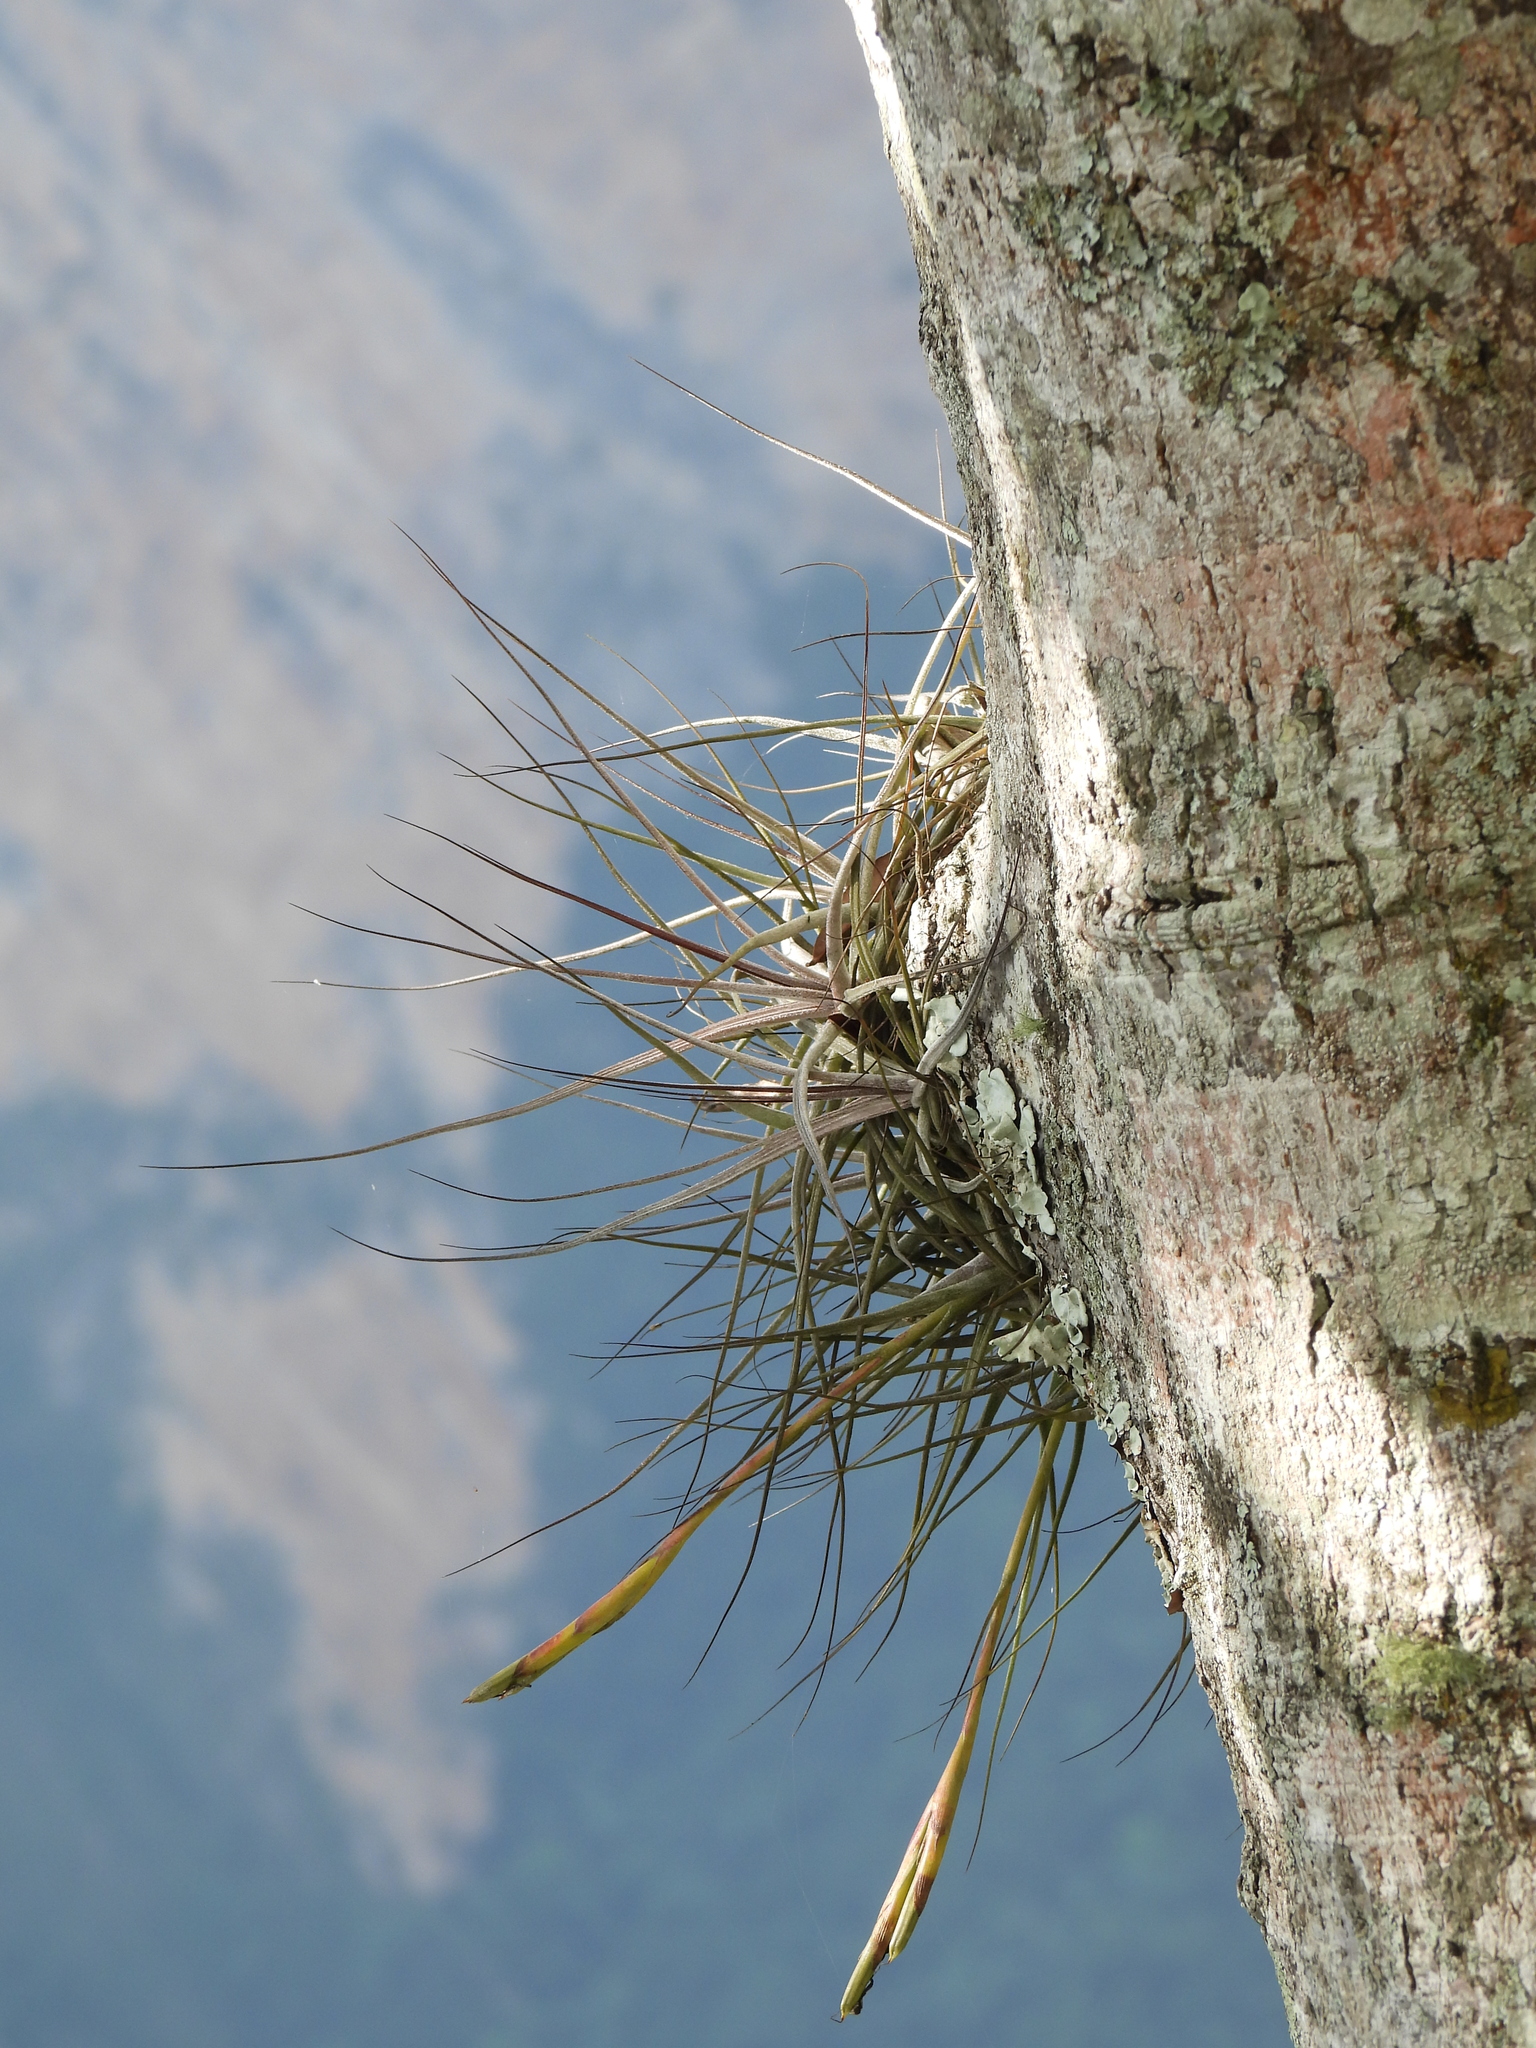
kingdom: Plantae
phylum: Tracheophyta
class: Liliopsida
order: Poales
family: Bromeliaceae
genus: Tillandsia
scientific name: Tillandsia schiedeana
